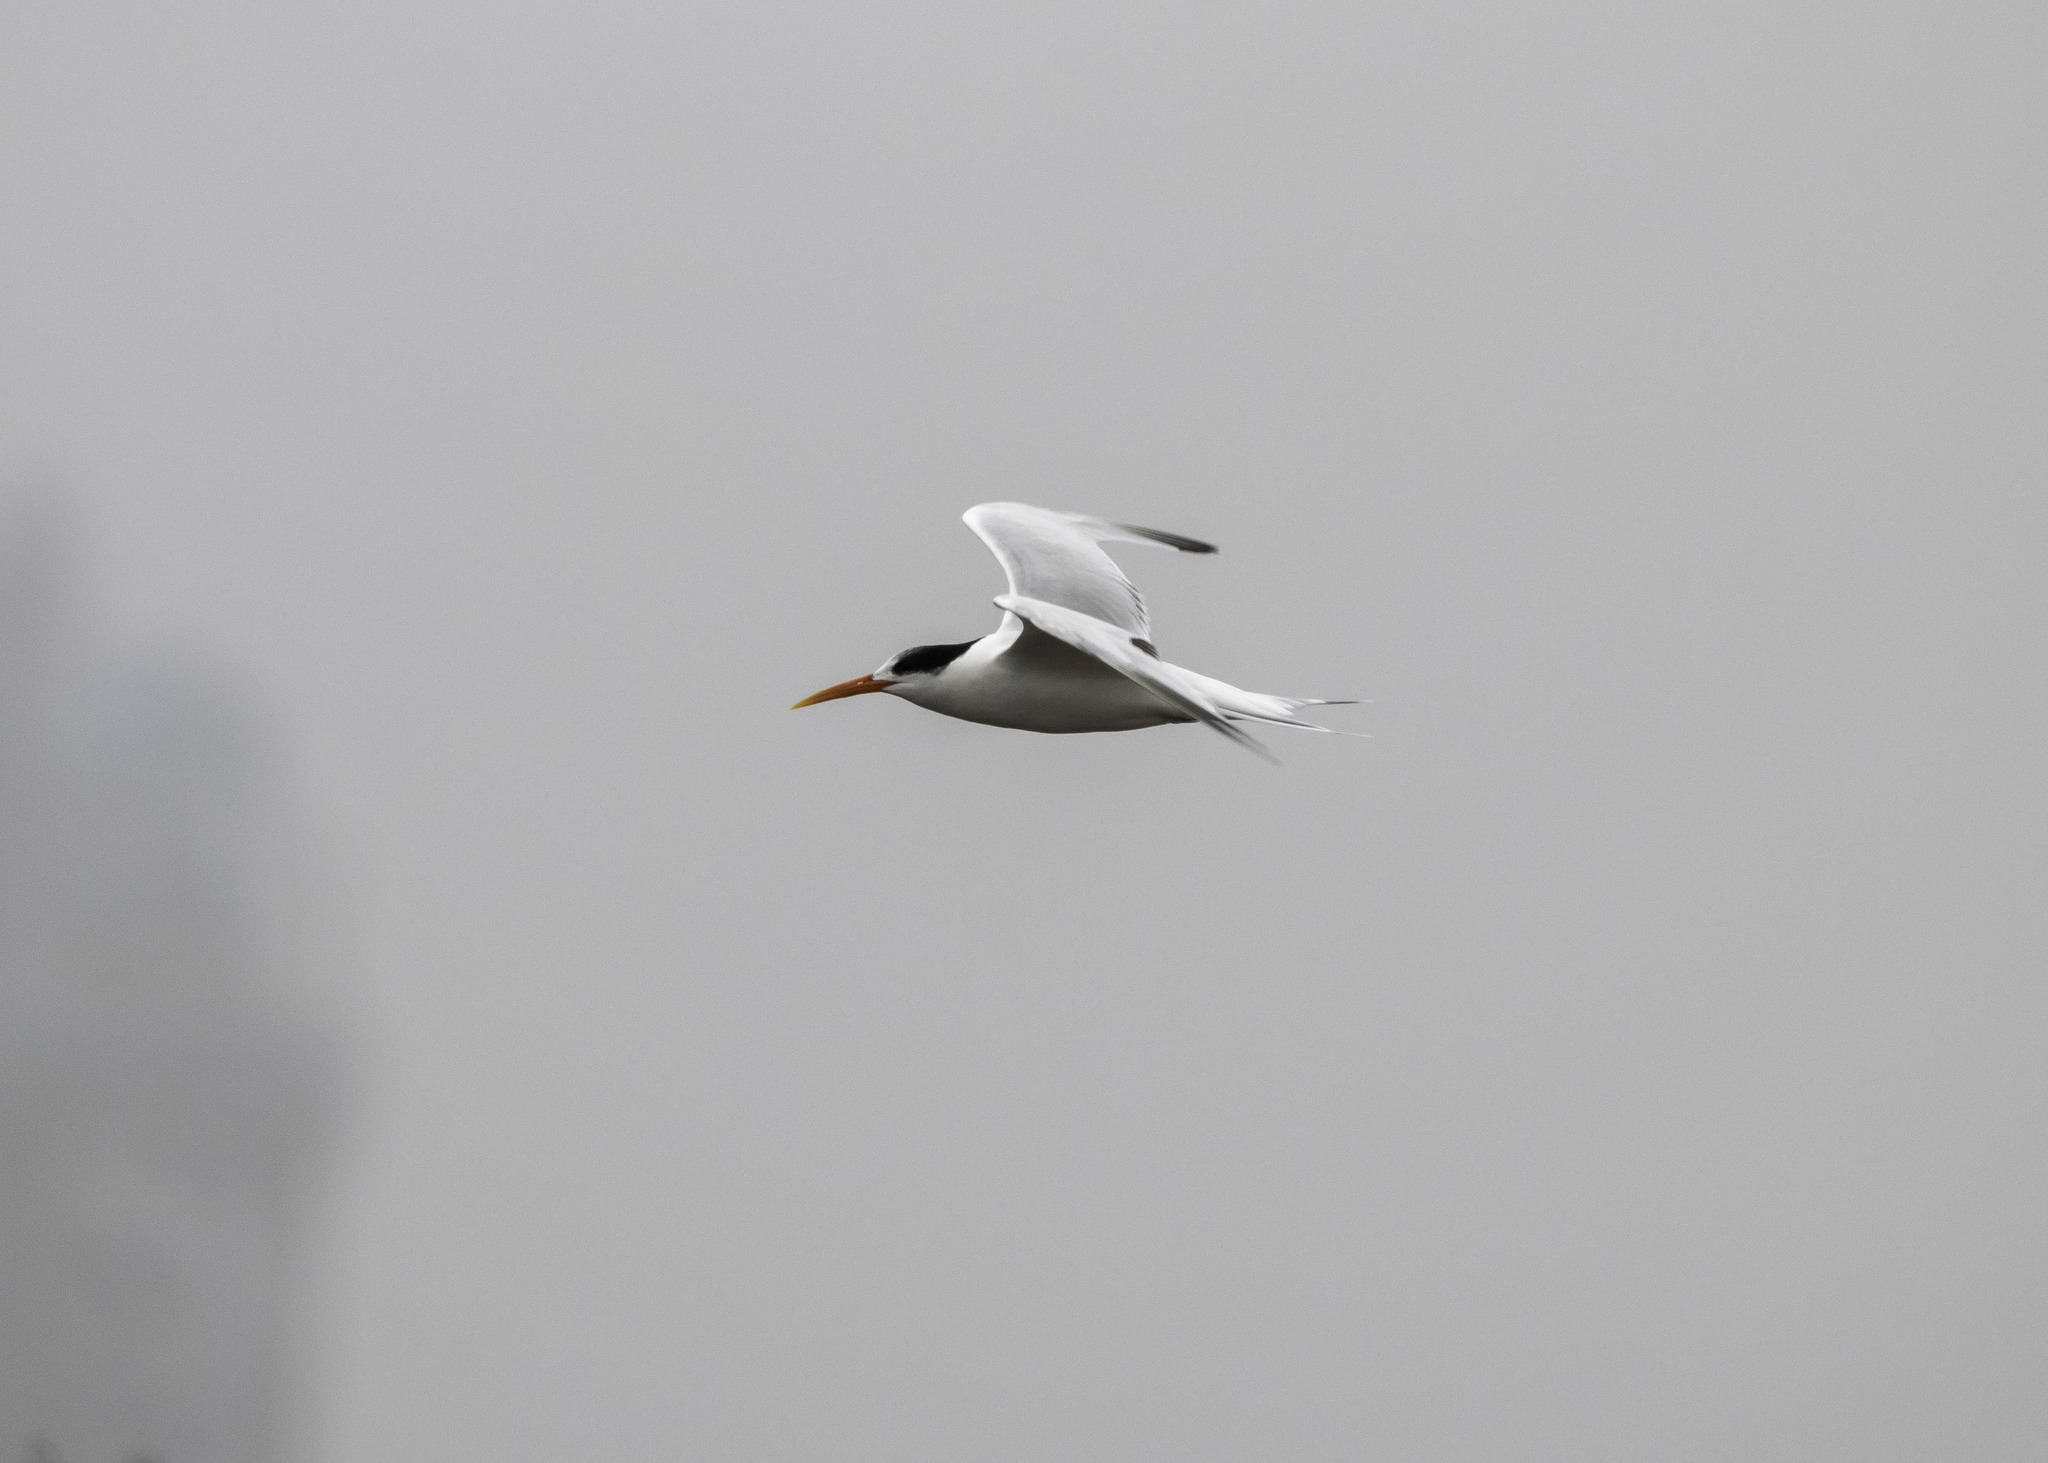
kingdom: Animalia
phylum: Chordata
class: Aves
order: Charadriiformes
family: Laridae
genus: Thalasseus
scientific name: Thalasseus elegans
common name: Elegant tern
